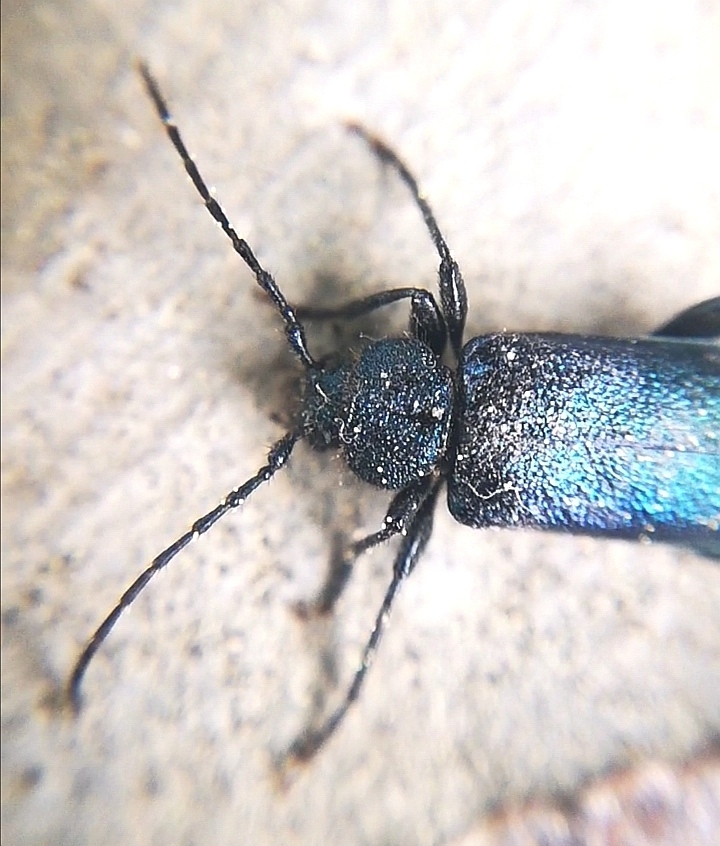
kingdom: Animalia
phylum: Arthropoda
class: Insecta
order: Coleoptera
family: Cerambycidae
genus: Callidium
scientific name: Callidium violaceum
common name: Violet tanbark beetle
